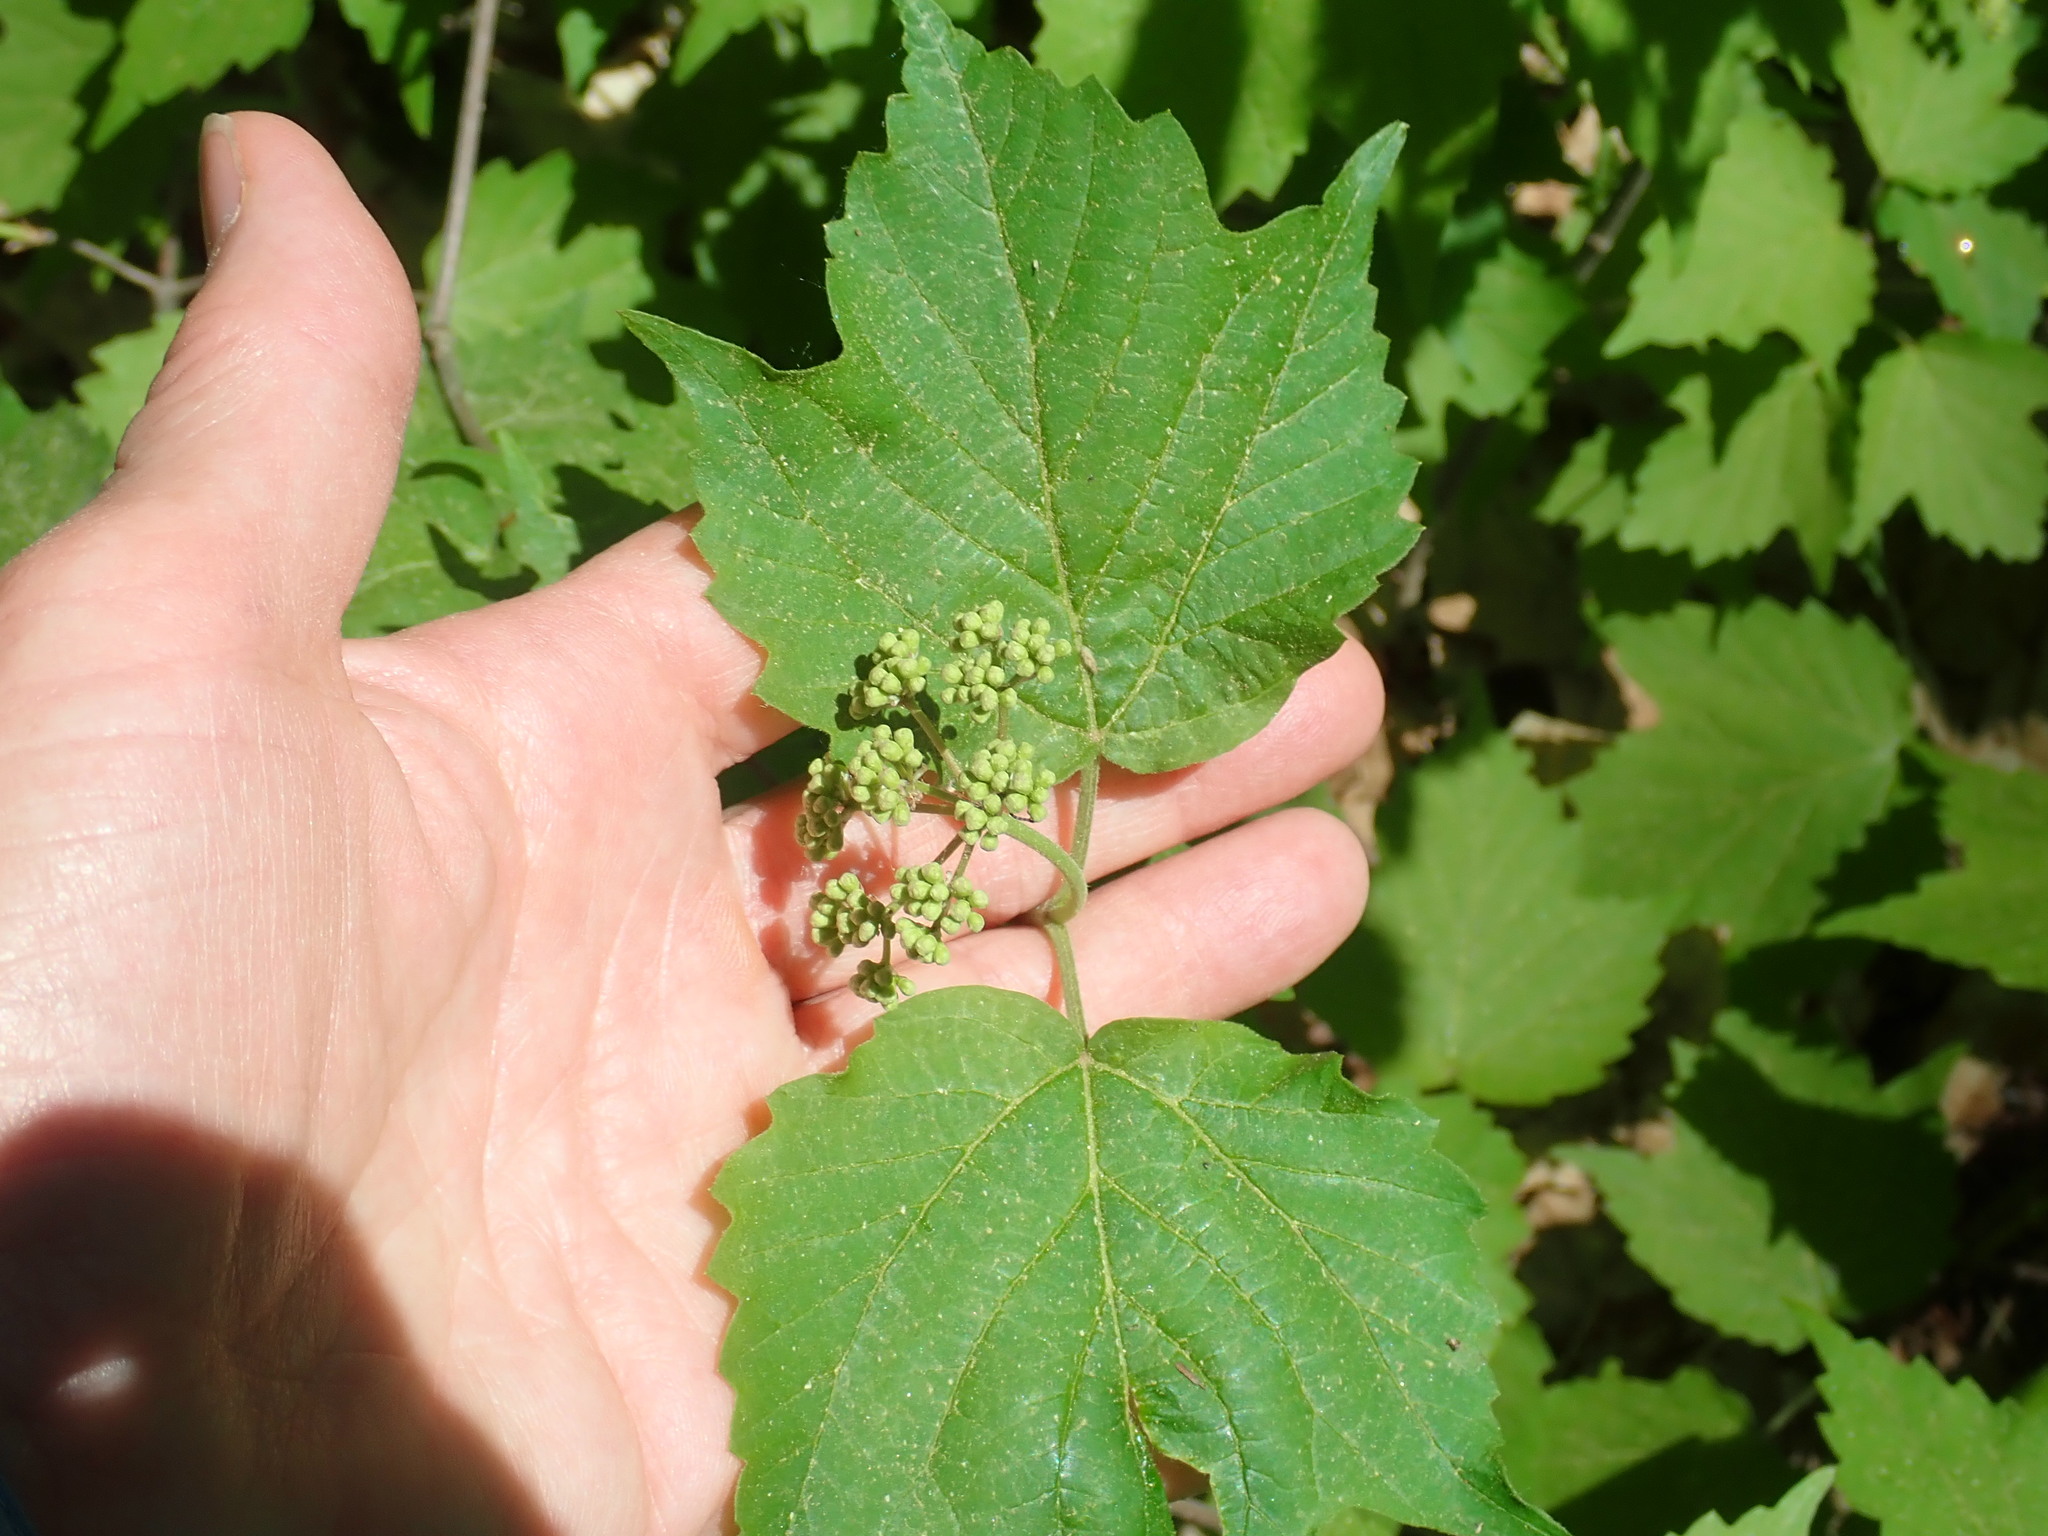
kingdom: Plantae
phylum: Tracheophyta
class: Magnoliopsida
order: Dipsacales
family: Viburnaceae
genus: Viburnum
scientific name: Viburnum acerifolium
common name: Dockmackie
